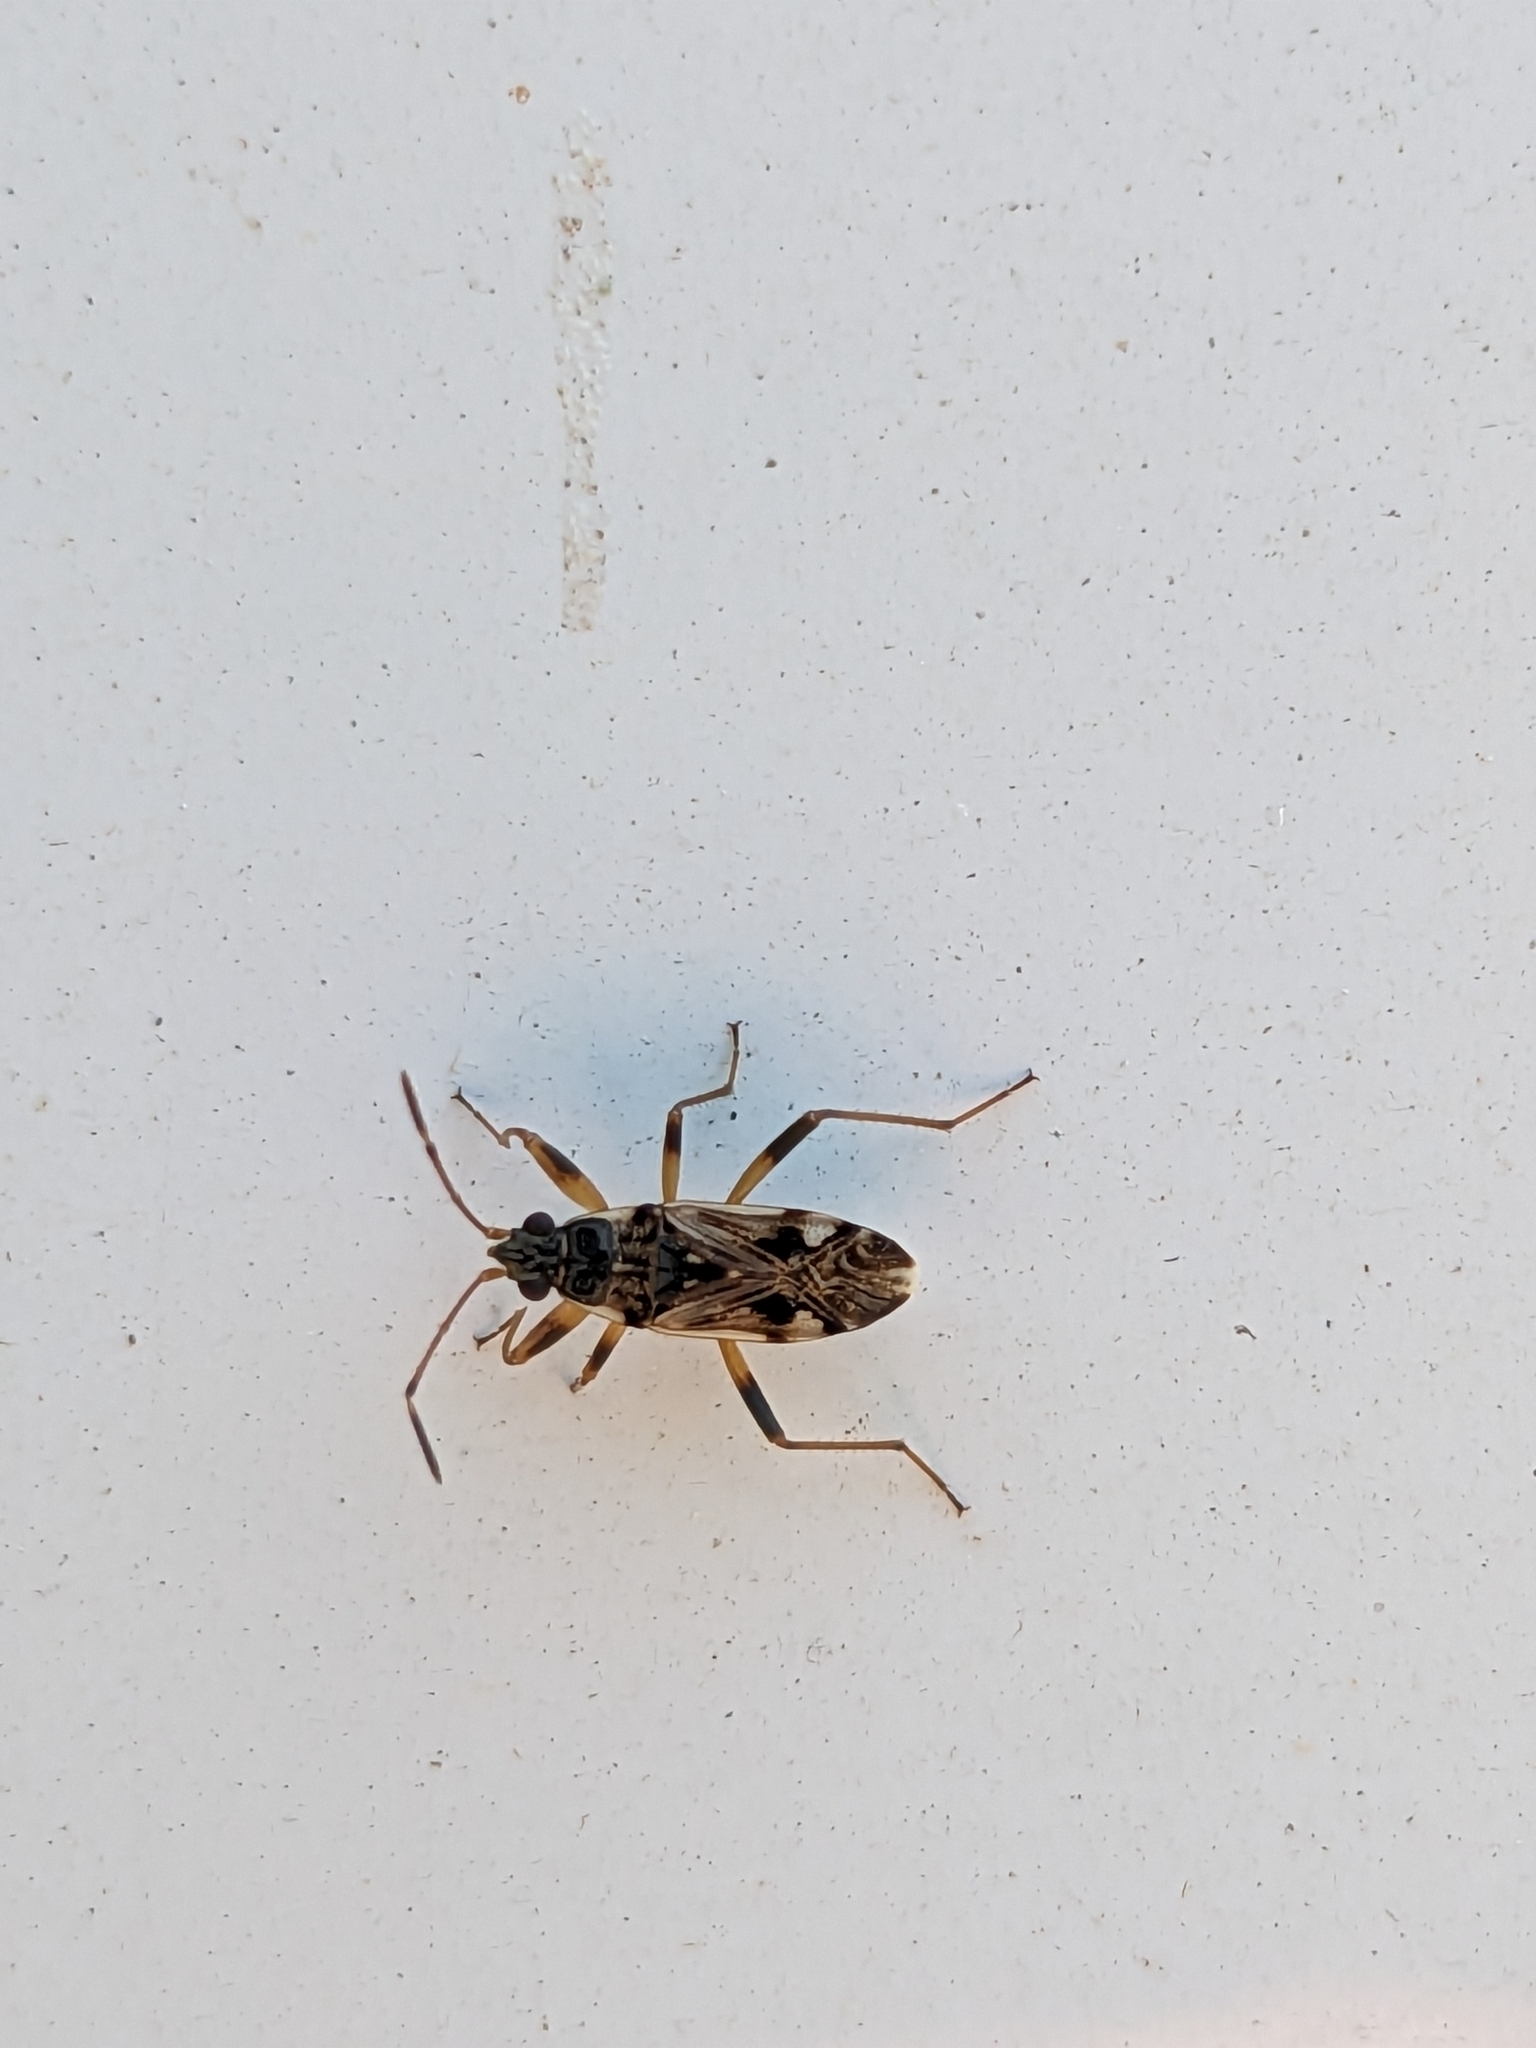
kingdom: Animalia
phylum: Arthropoda
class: Insecta
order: Hemiptera
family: Rhyparochromidae
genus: Beosus
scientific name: Beosus maritimus
